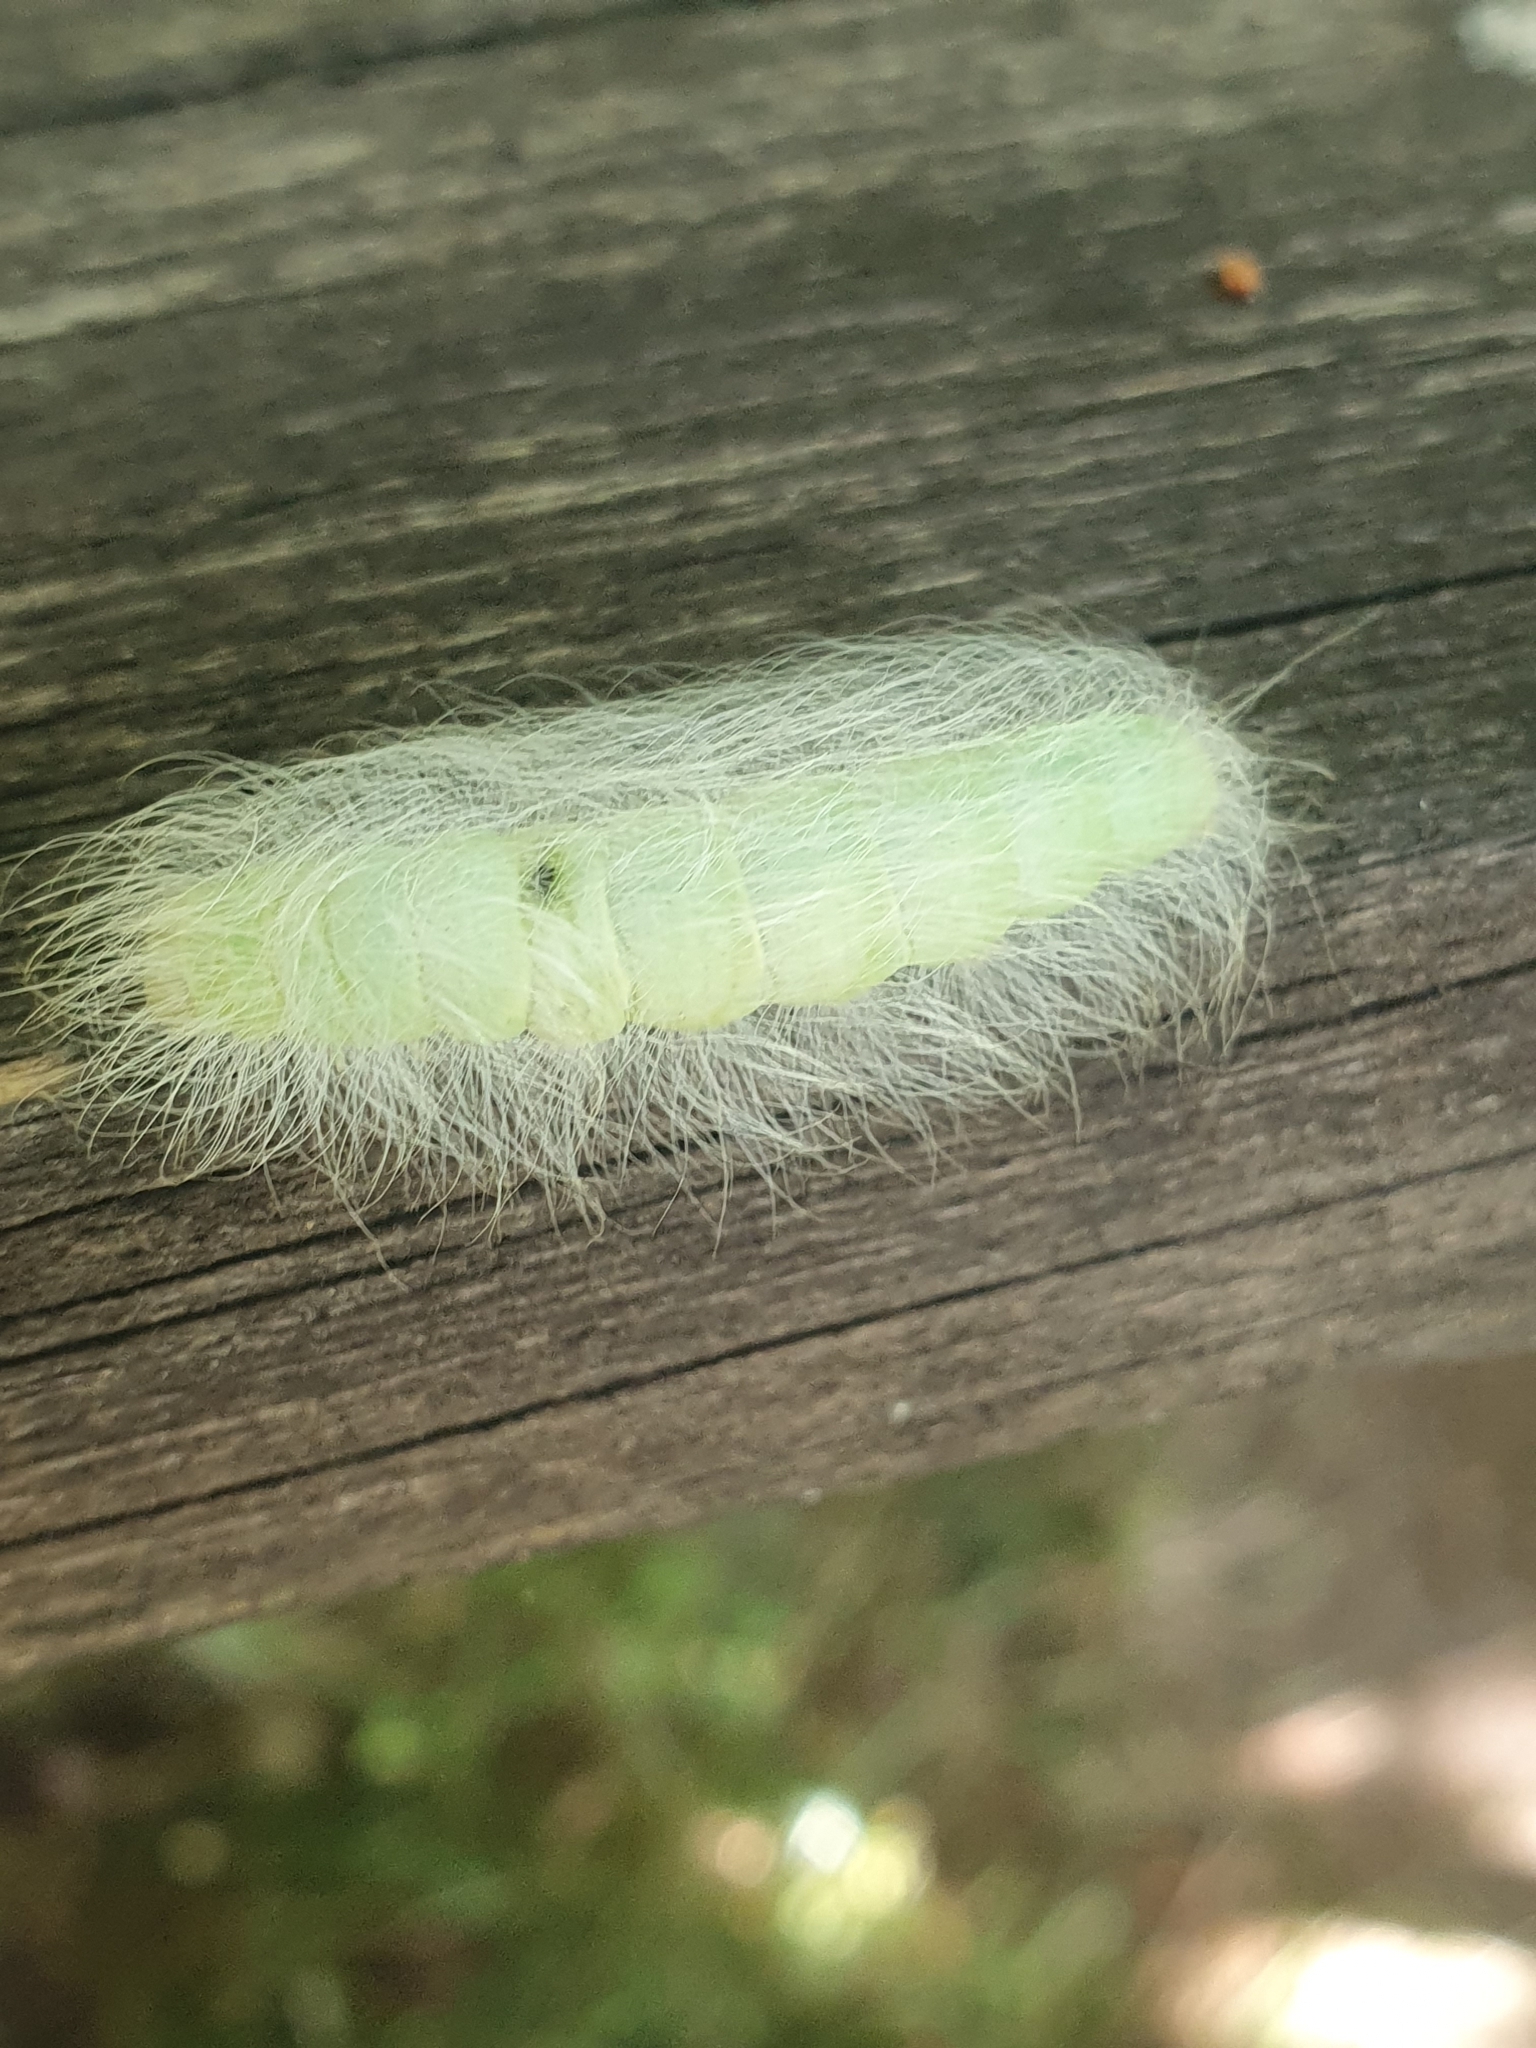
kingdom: Animalia
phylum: Arthropoda
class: Insecta
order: Lepidoptera
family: Noctuidae
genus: Acronicta
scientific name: Acronicta leporina
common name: Miller
